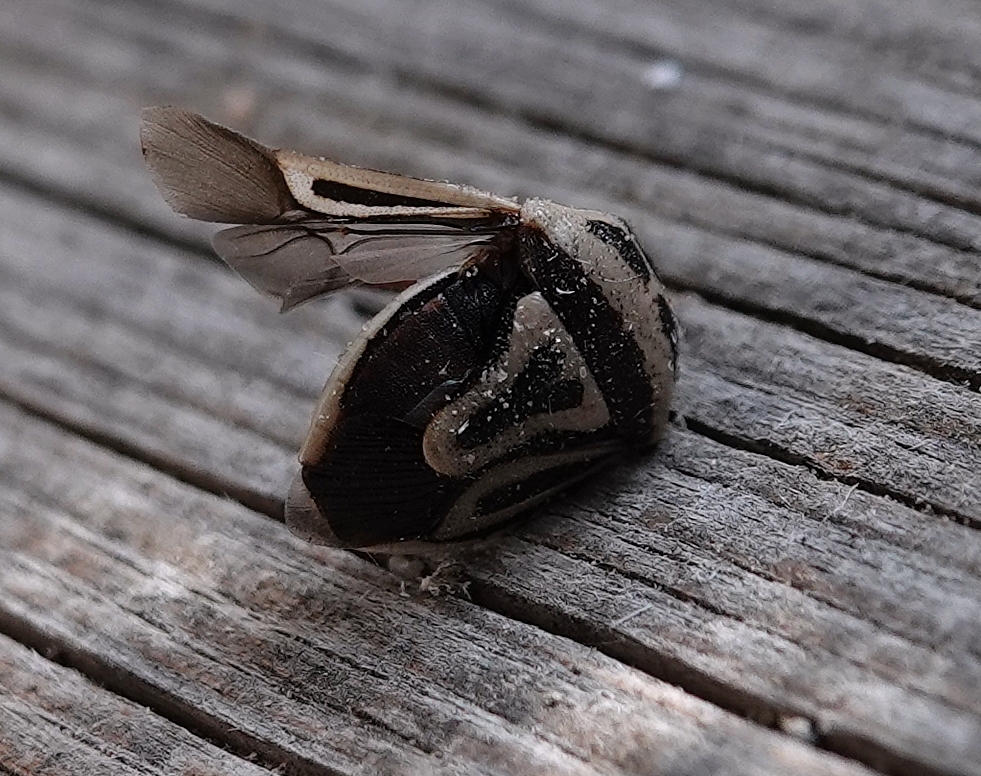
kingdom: Animalia
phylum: Arthropoda
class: Insecta
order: Hemiptera
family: Pentatomidae
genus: Perillus
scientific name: Perillus bioculatus
